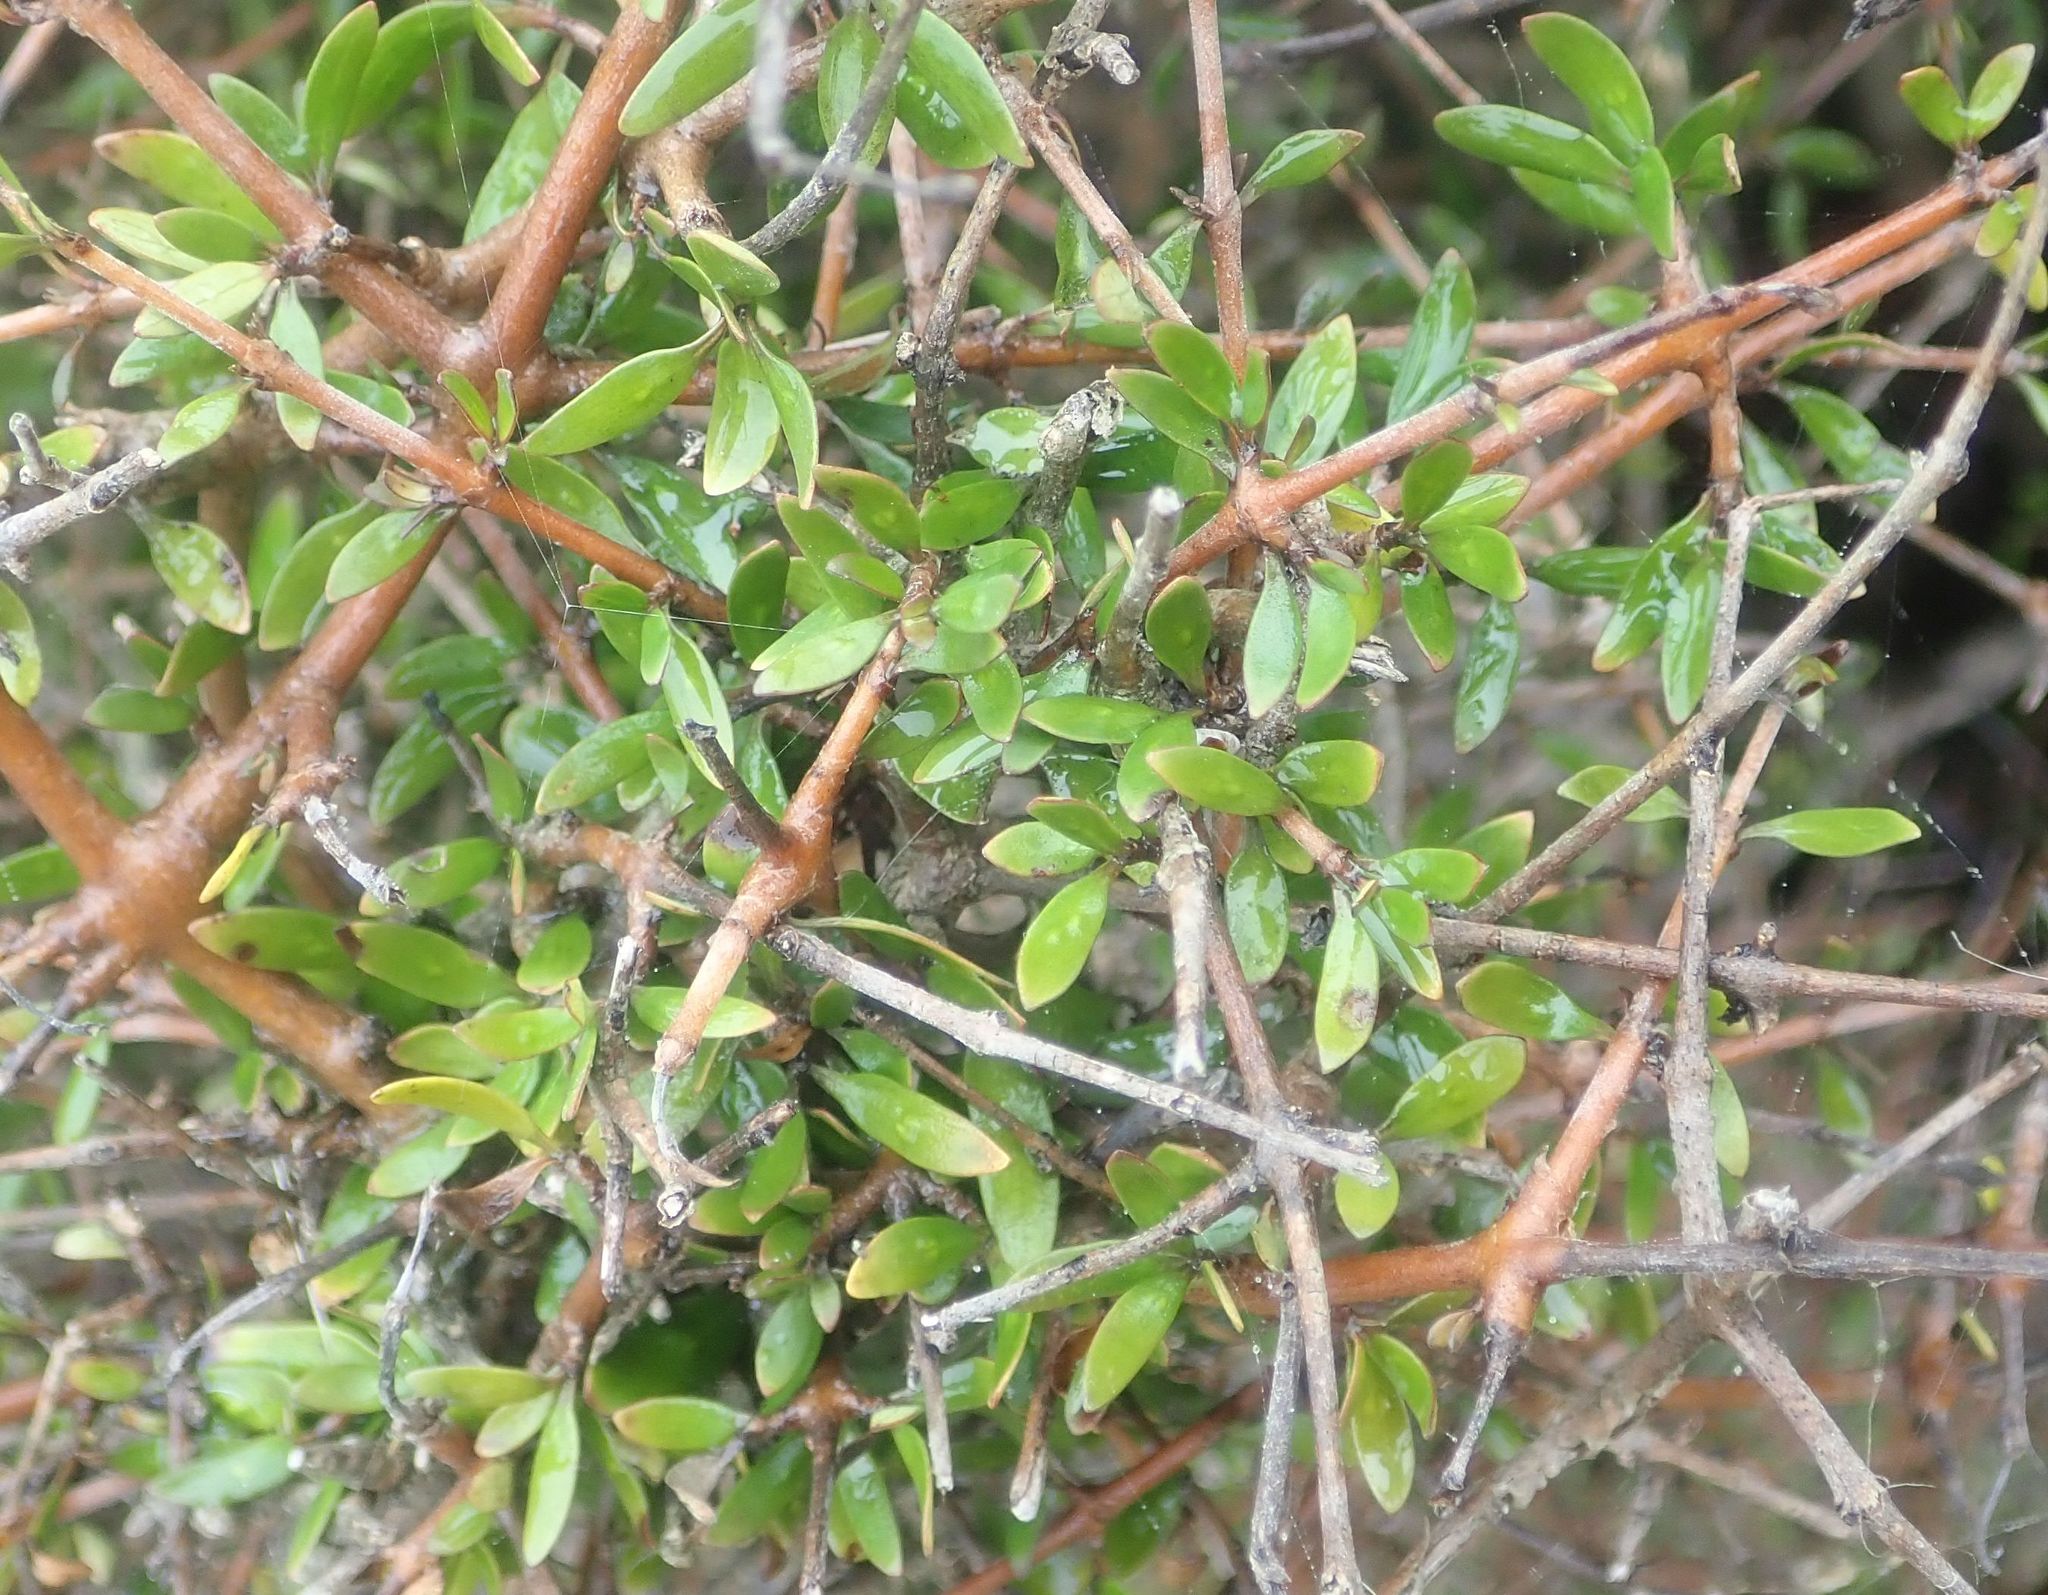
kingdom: Plantae
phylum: Tracheophyta
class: Magnoliopsida
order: Gentianales
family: Rubiaceae
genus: Coprosma
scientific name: Coprosma propinqua
